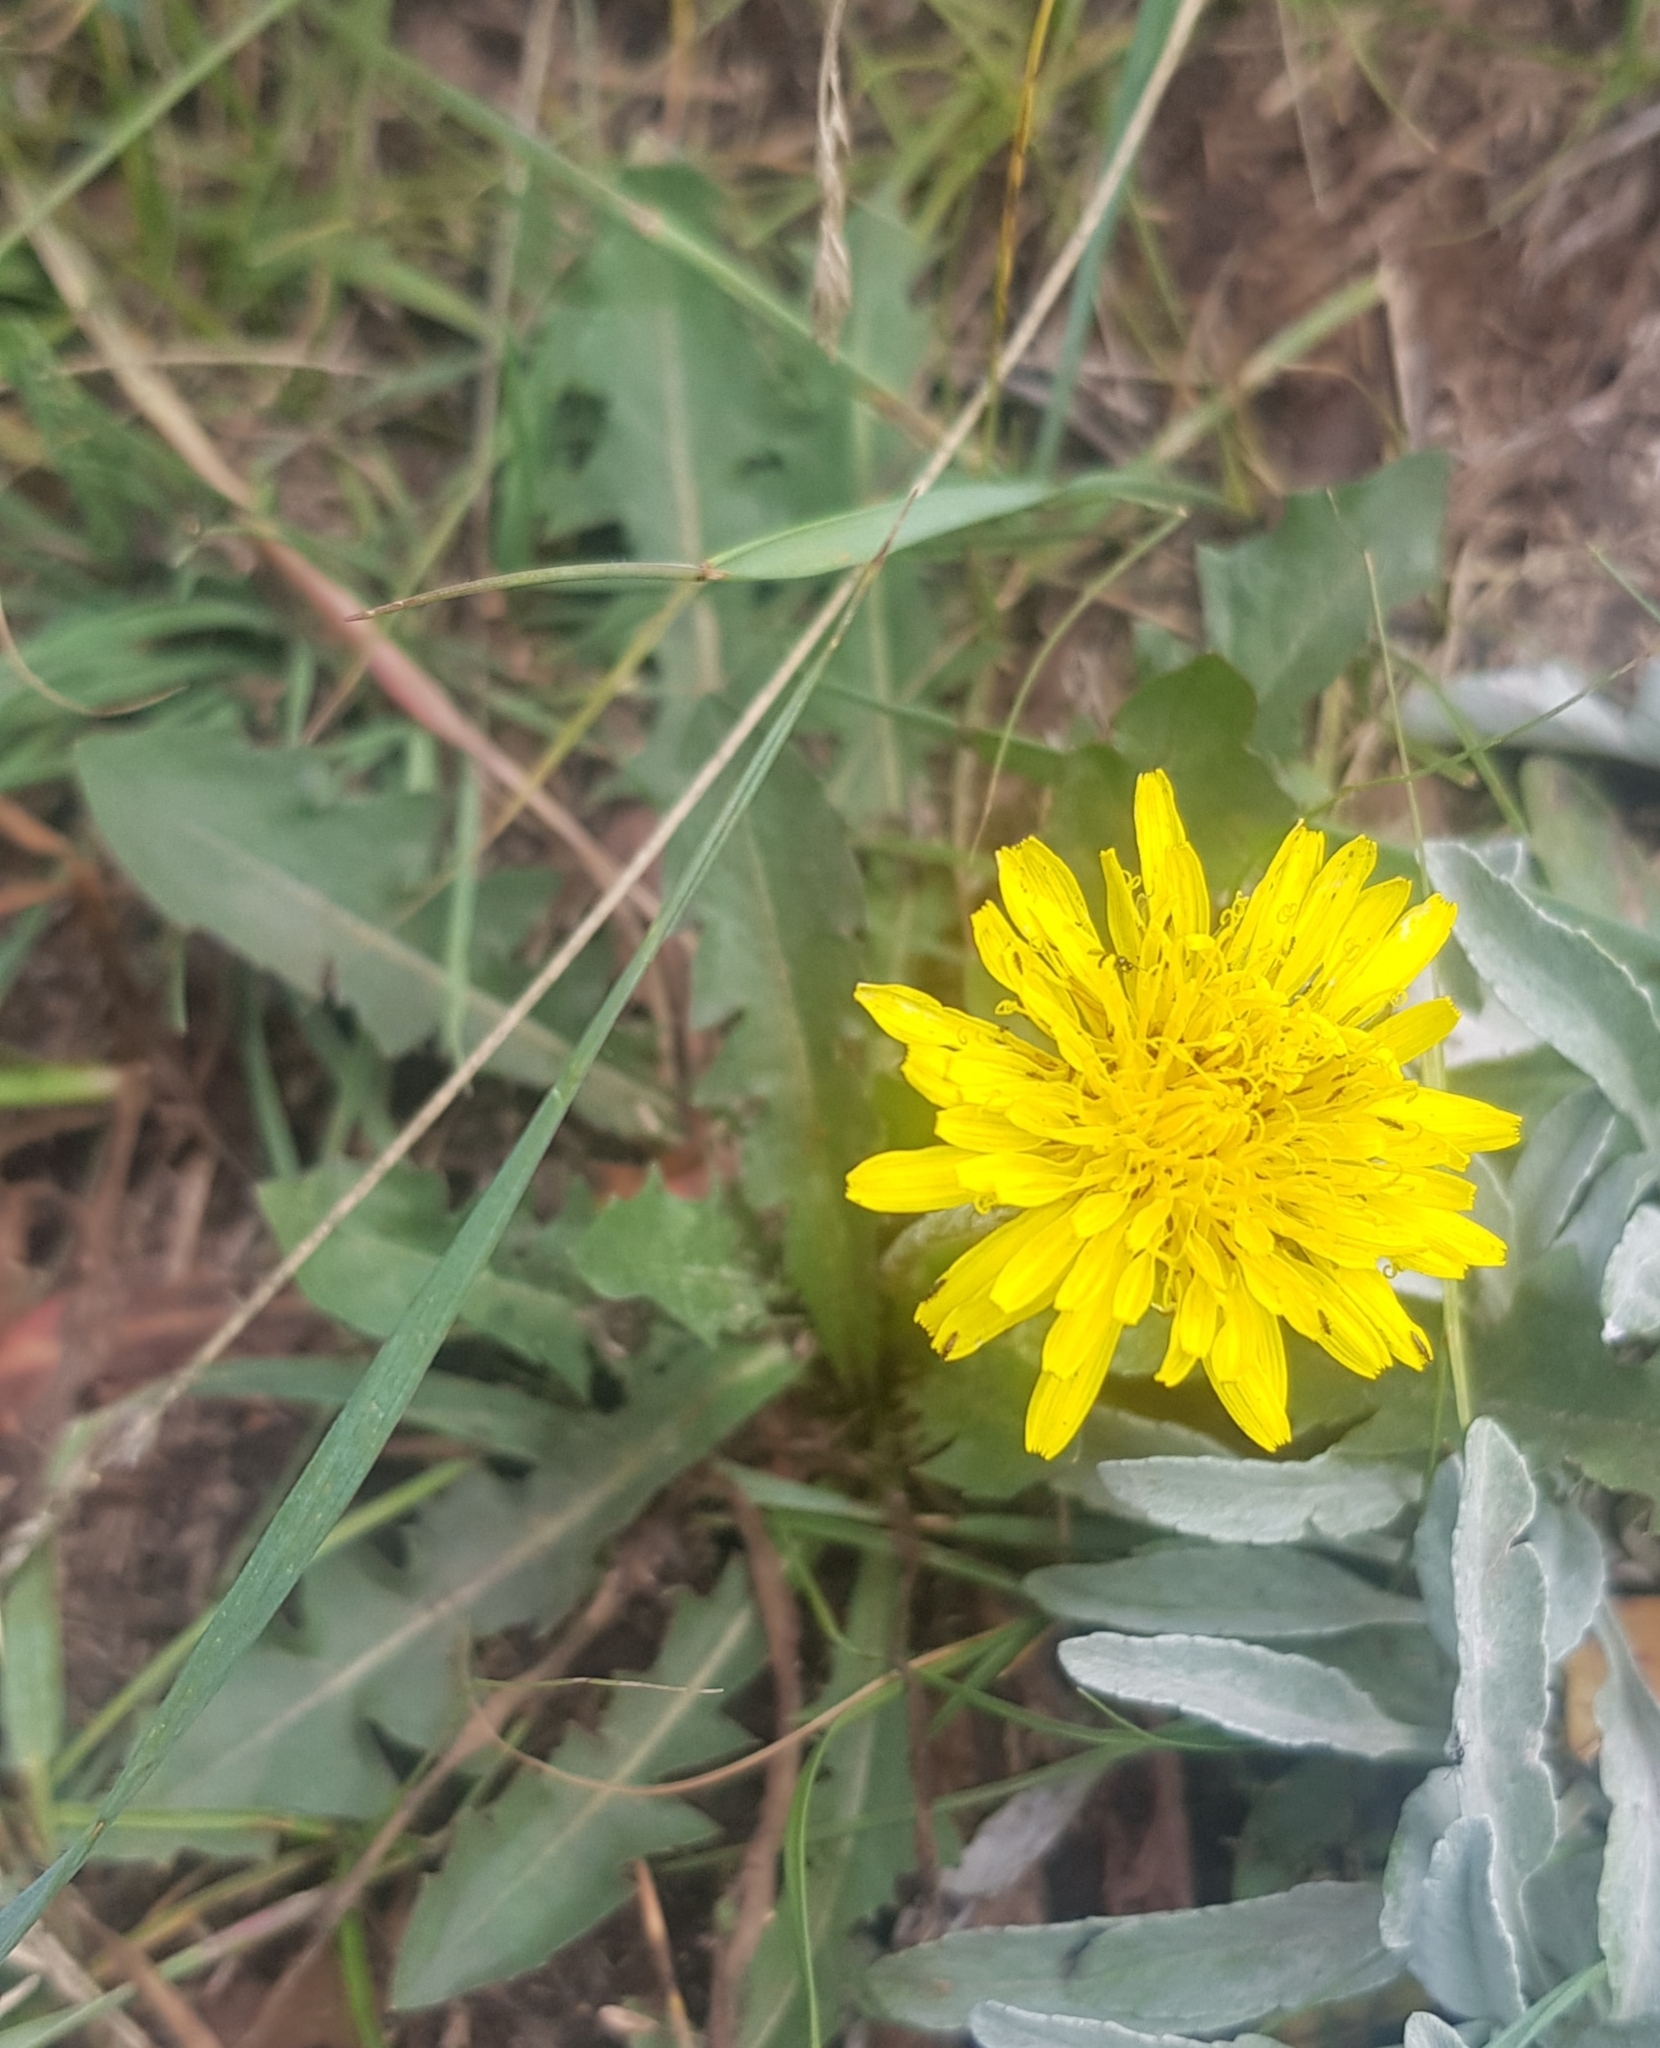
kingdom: Plantae
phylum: Tracheophyta
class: Magnoliopsida
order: Asterales
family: Asteraceae
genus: Taraxacum
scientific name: Taraxacum officinale
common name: Common dandelion
